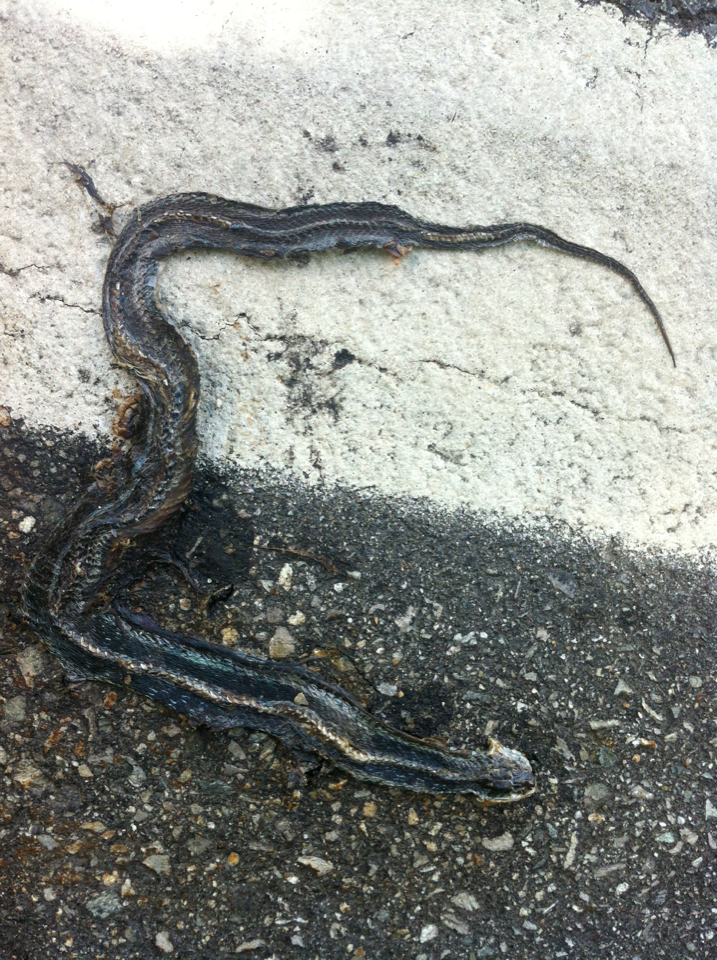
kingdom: Animalia
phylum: Chordata
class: Squamata
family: Colubridae
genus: Thamnophis
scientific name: Thamnophis sirtalis
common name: Common garter snake
